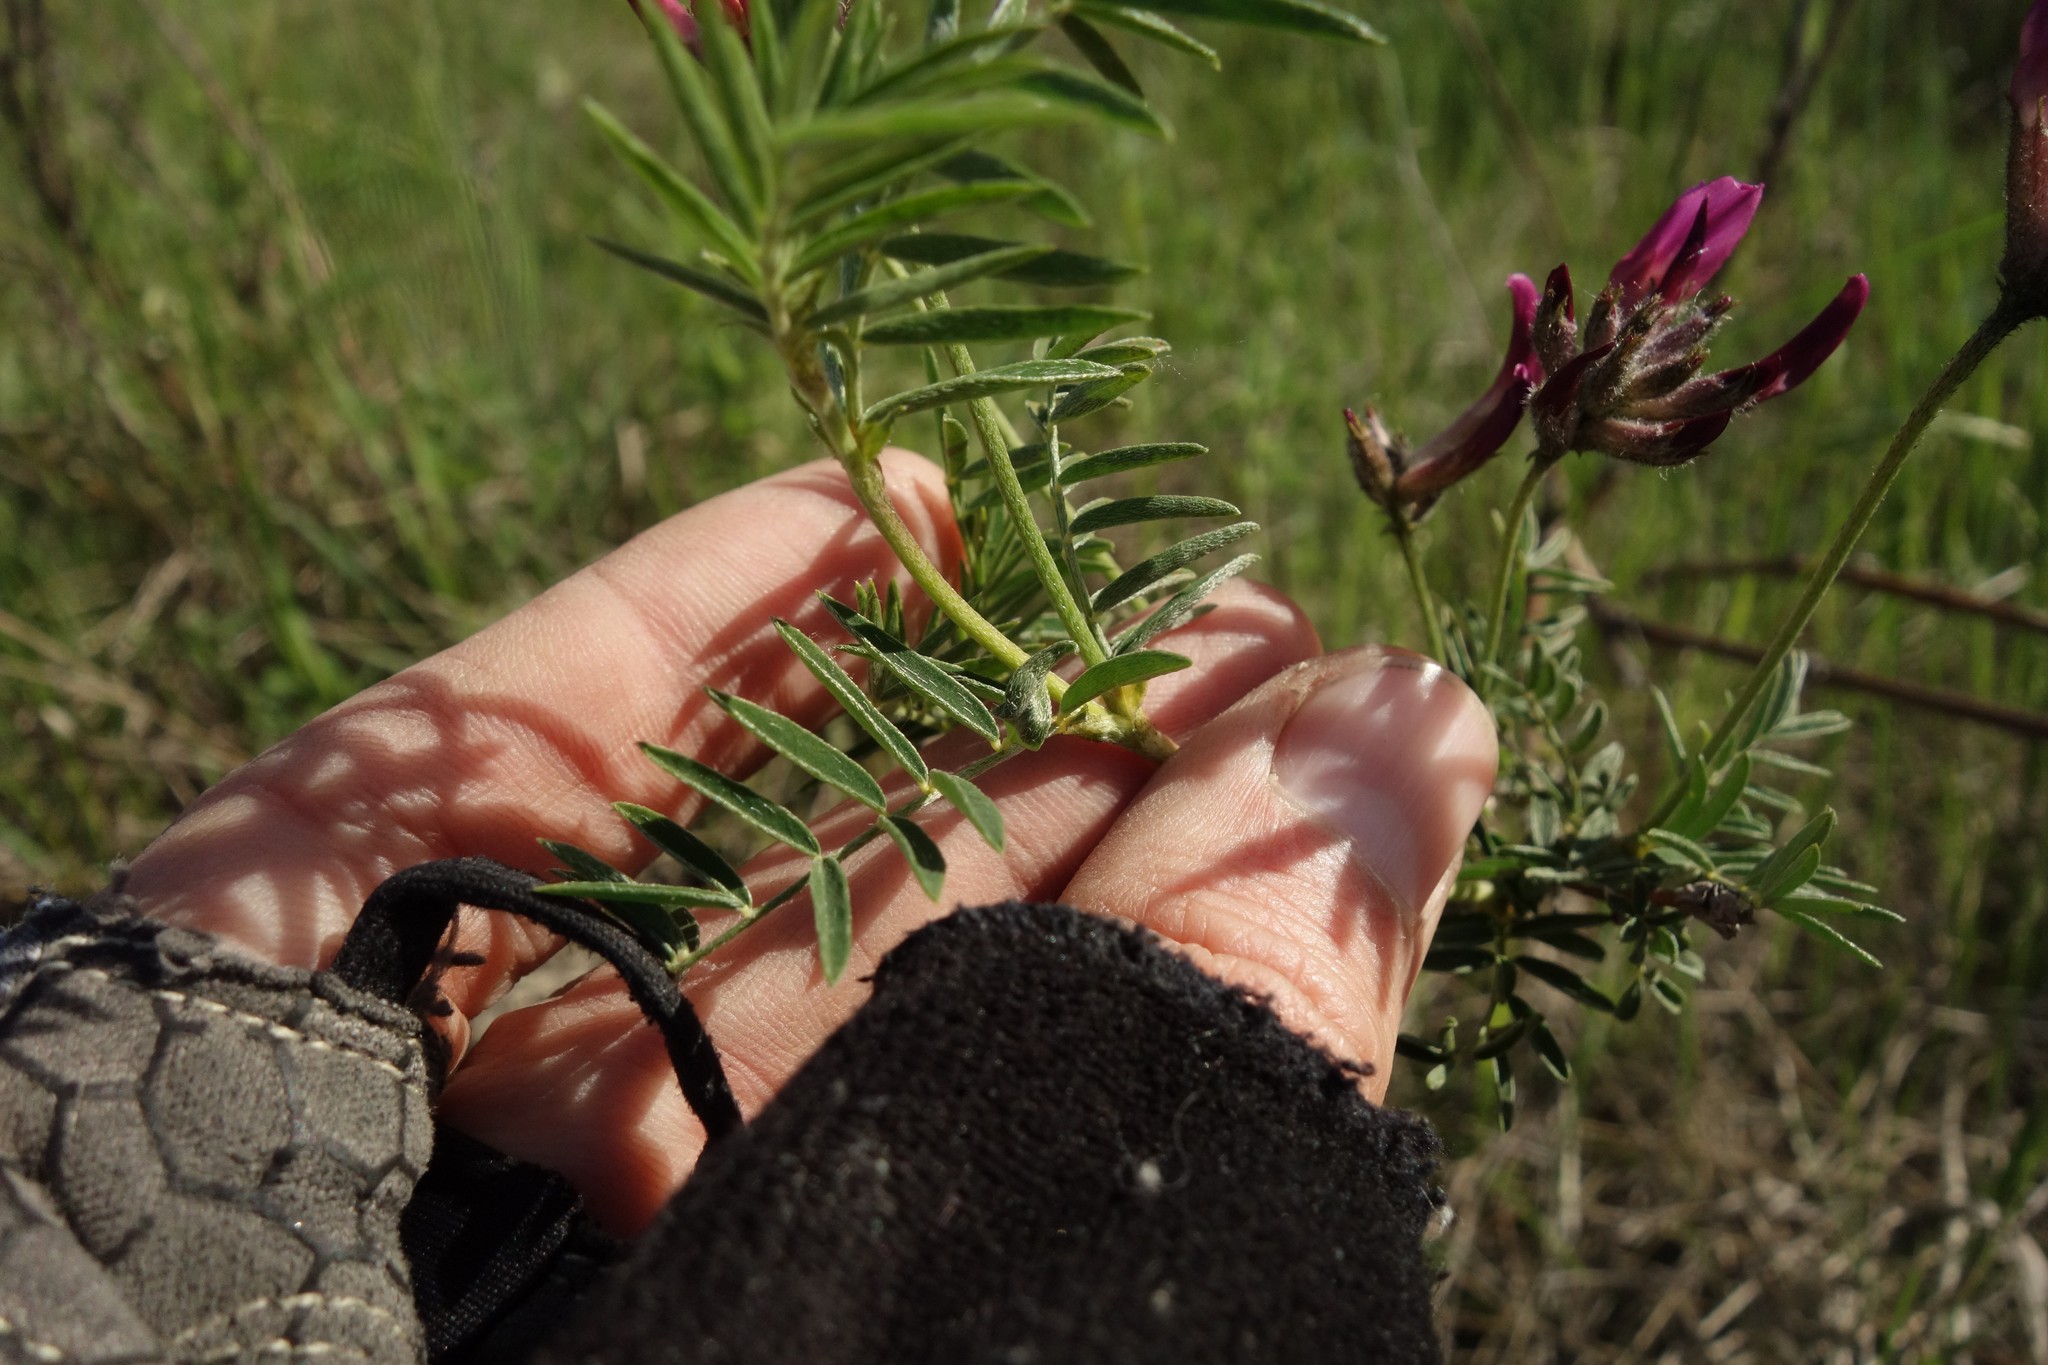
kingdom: Plantae
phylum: Tracheophyta
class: Magnoliopsida
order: Fabales
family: Fabaceae
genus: Astragalus
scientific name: Astragalus cornutus
